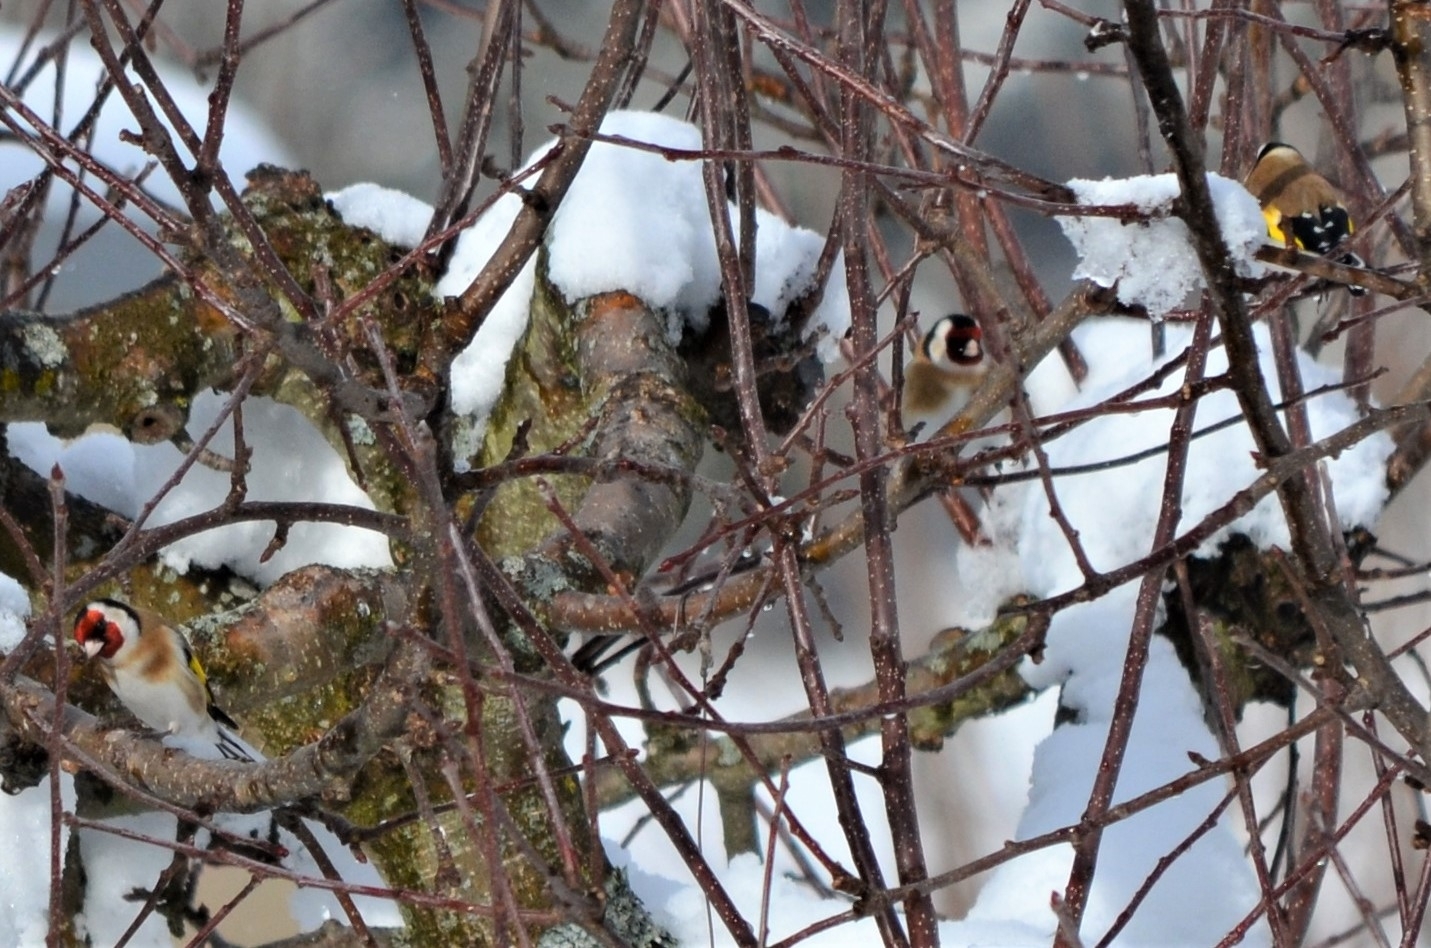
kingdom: Animalia
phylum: Chordata
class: Aves
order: Passeriformes
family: Fringillidae
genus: Carduelis
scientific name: Carduelis carduelis
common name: European goldfinch
